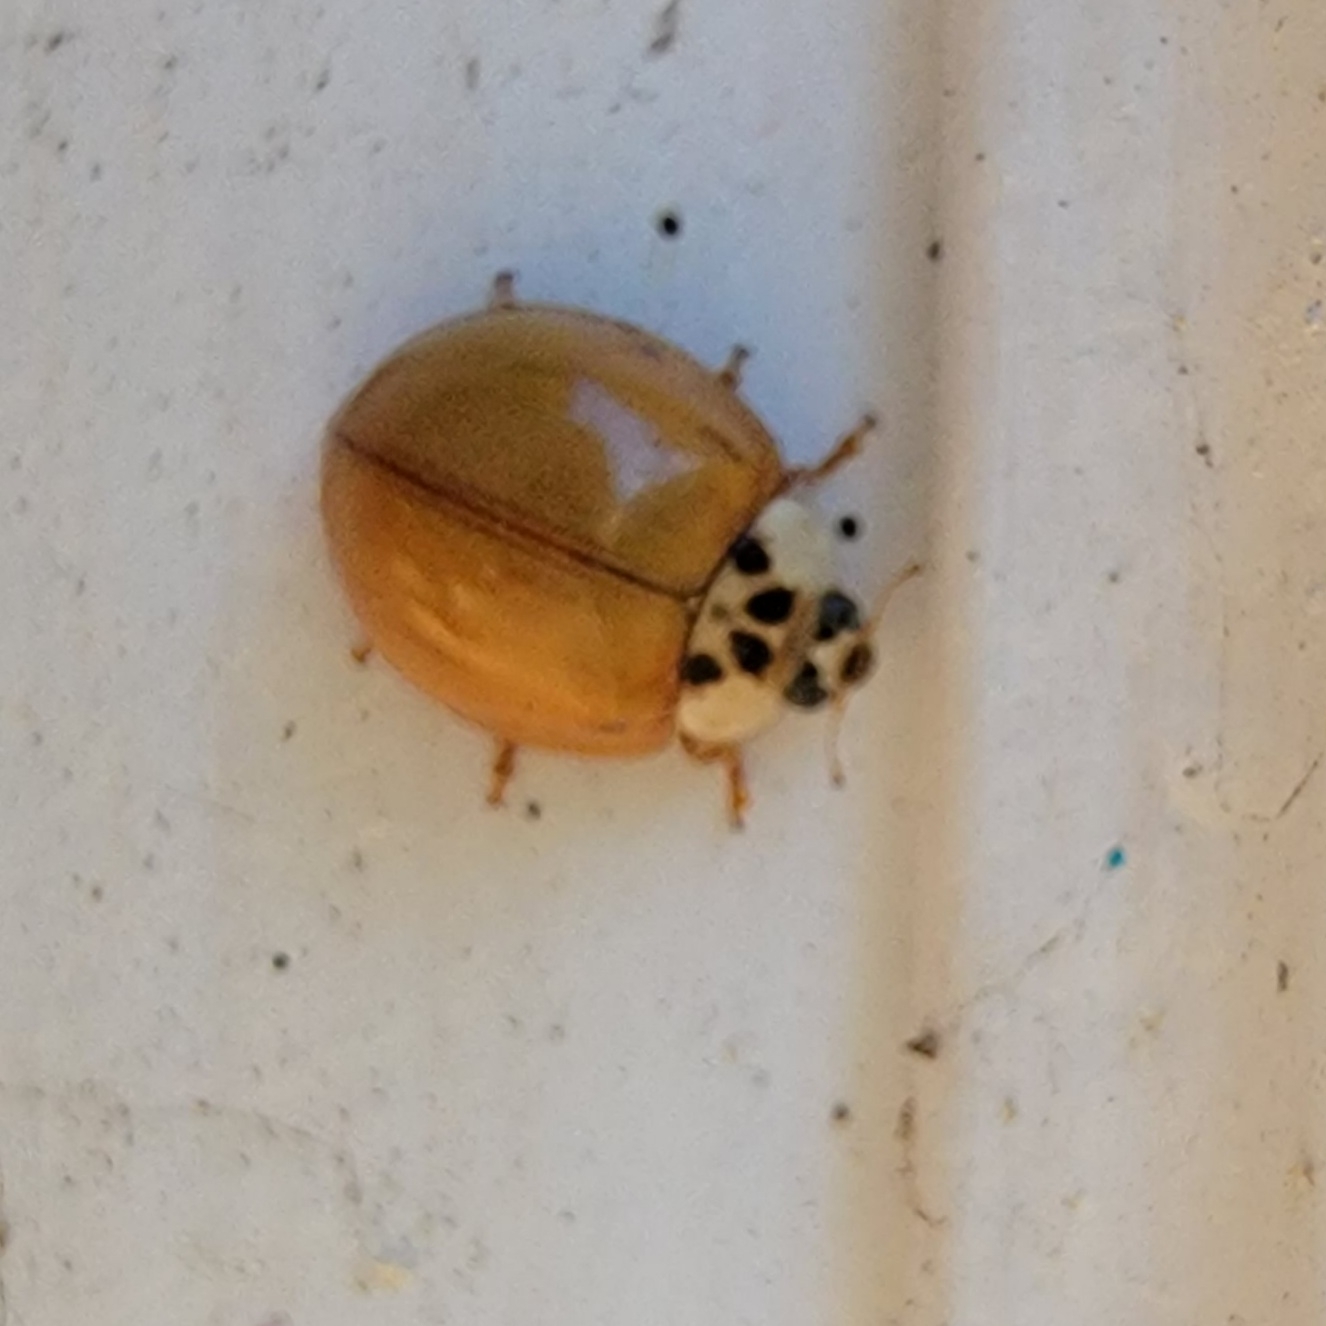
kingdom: Animalia
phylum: Arthropoda
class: Insecta
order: Coleoptera
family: Coccinellidae
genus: Harmonia
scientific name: Harmonia axyridis
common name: Harlequin ladybird
